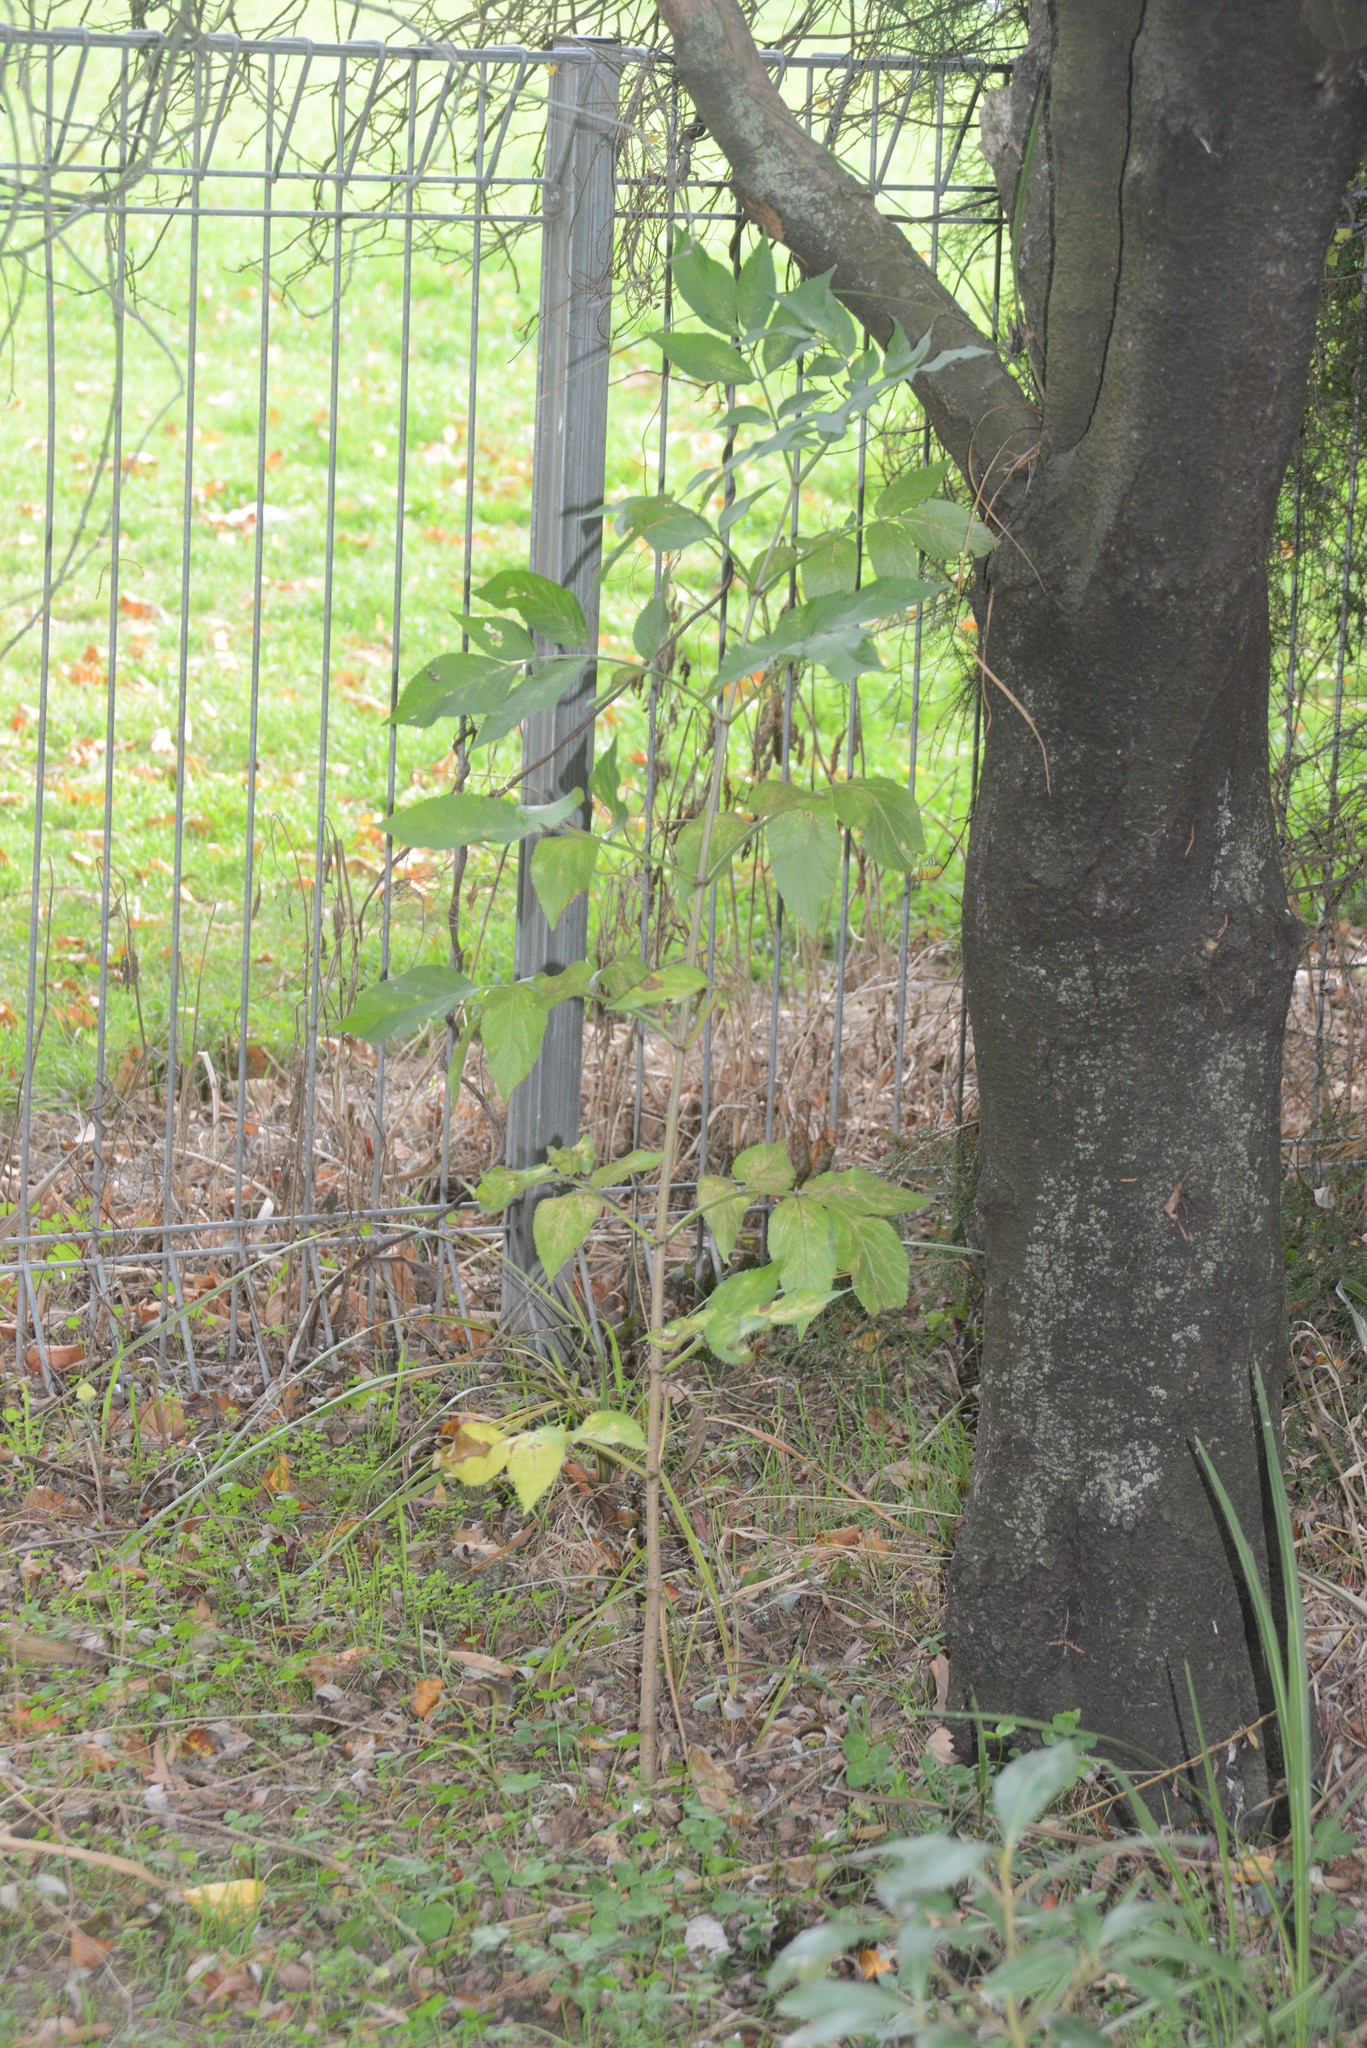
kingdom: Plantae
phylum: Tracheophyta
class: Magnoliopsida
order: Dipsacales
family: Viburnaceae
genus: Sambucus
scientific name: Sambucus nigra
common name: Elder
